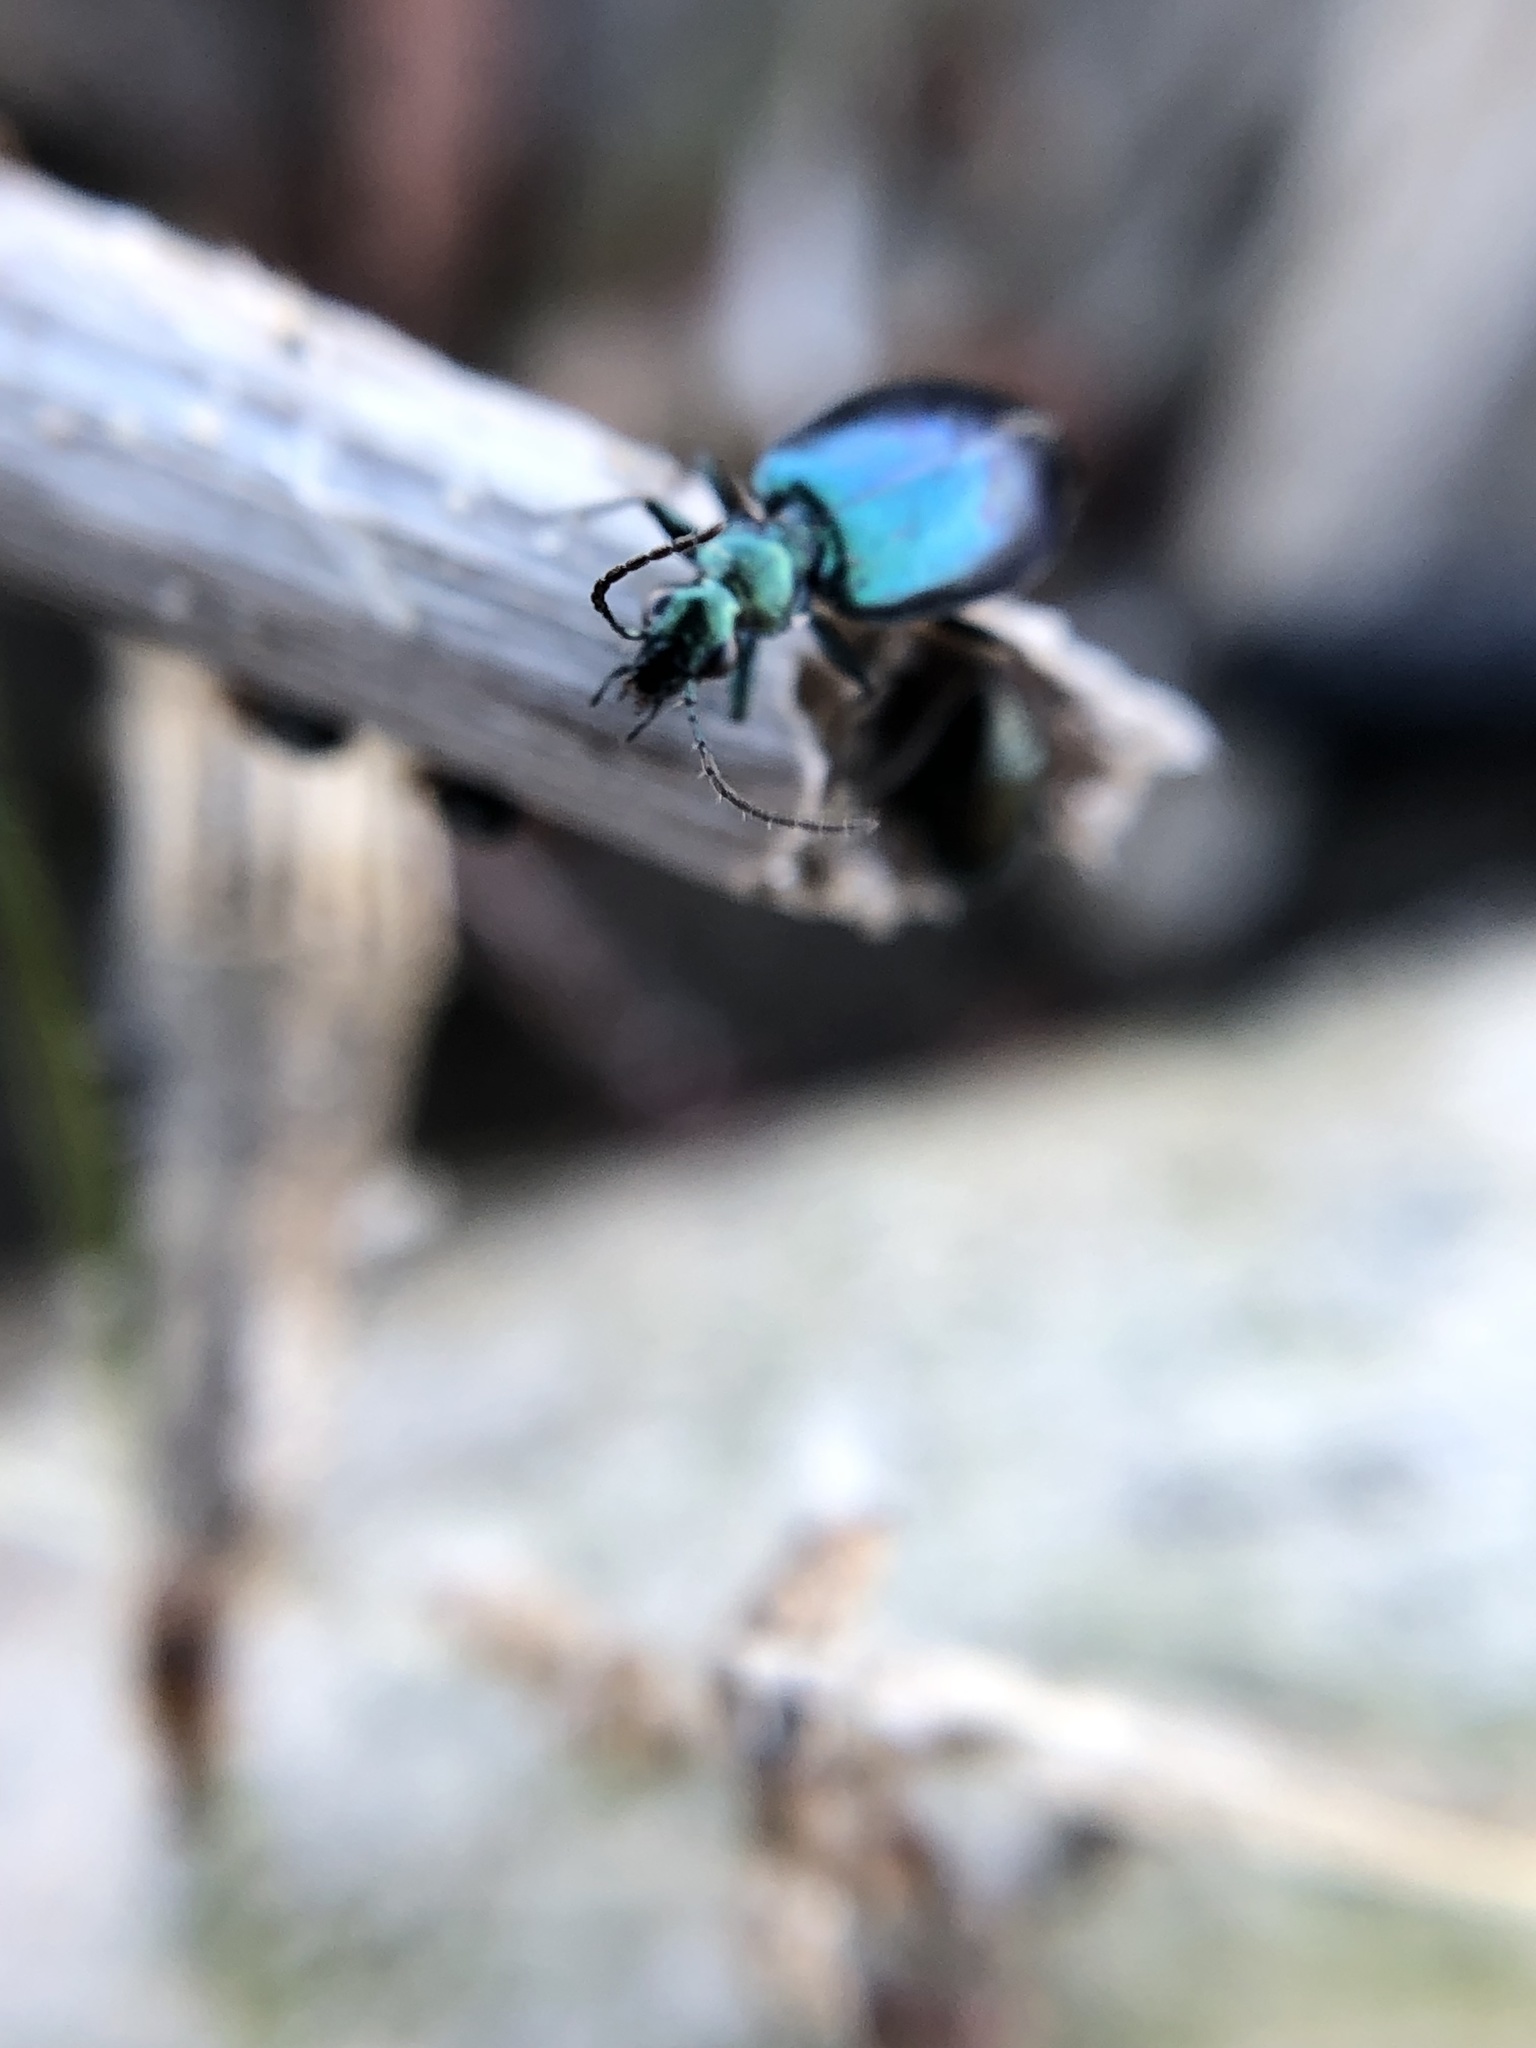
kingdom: Animalia
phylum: Arthropoda
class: Insecta
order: Coleoptera
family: Carabidae
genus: Lebia
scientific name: Lebia viridis
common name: Flower lebia beetle
